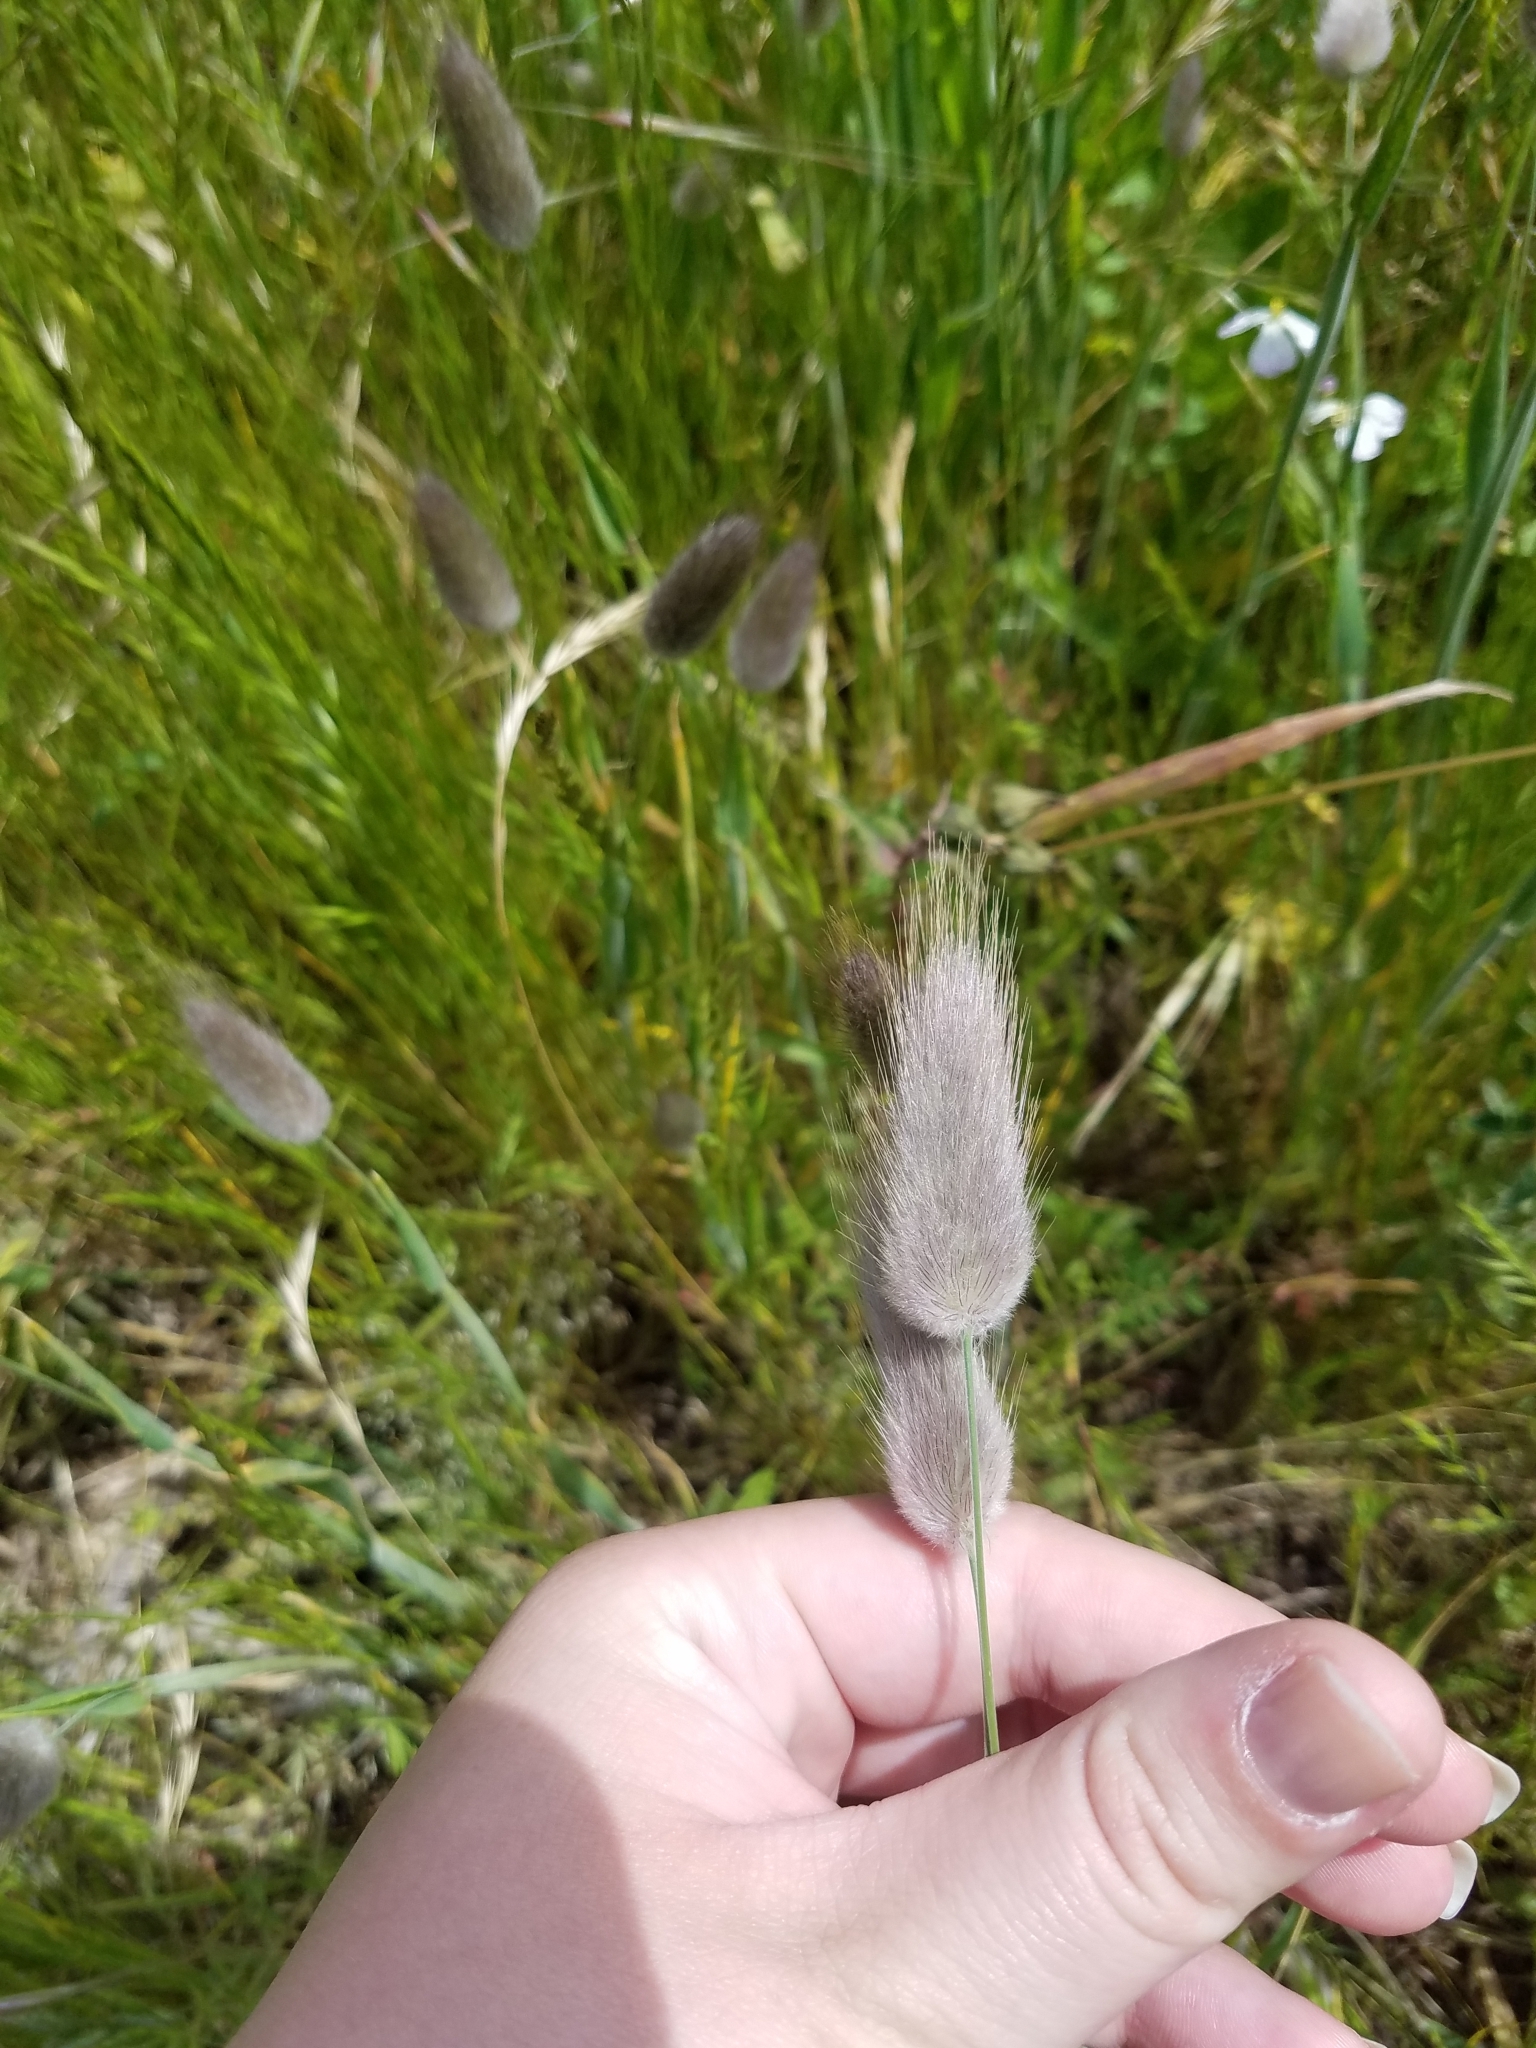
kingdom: Plantae
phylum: Tracheophyta
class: Liliopsida
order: Poales
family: Poaceae
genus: Lagurus
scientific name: Lagurus ovatus
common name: Hare's-tail
